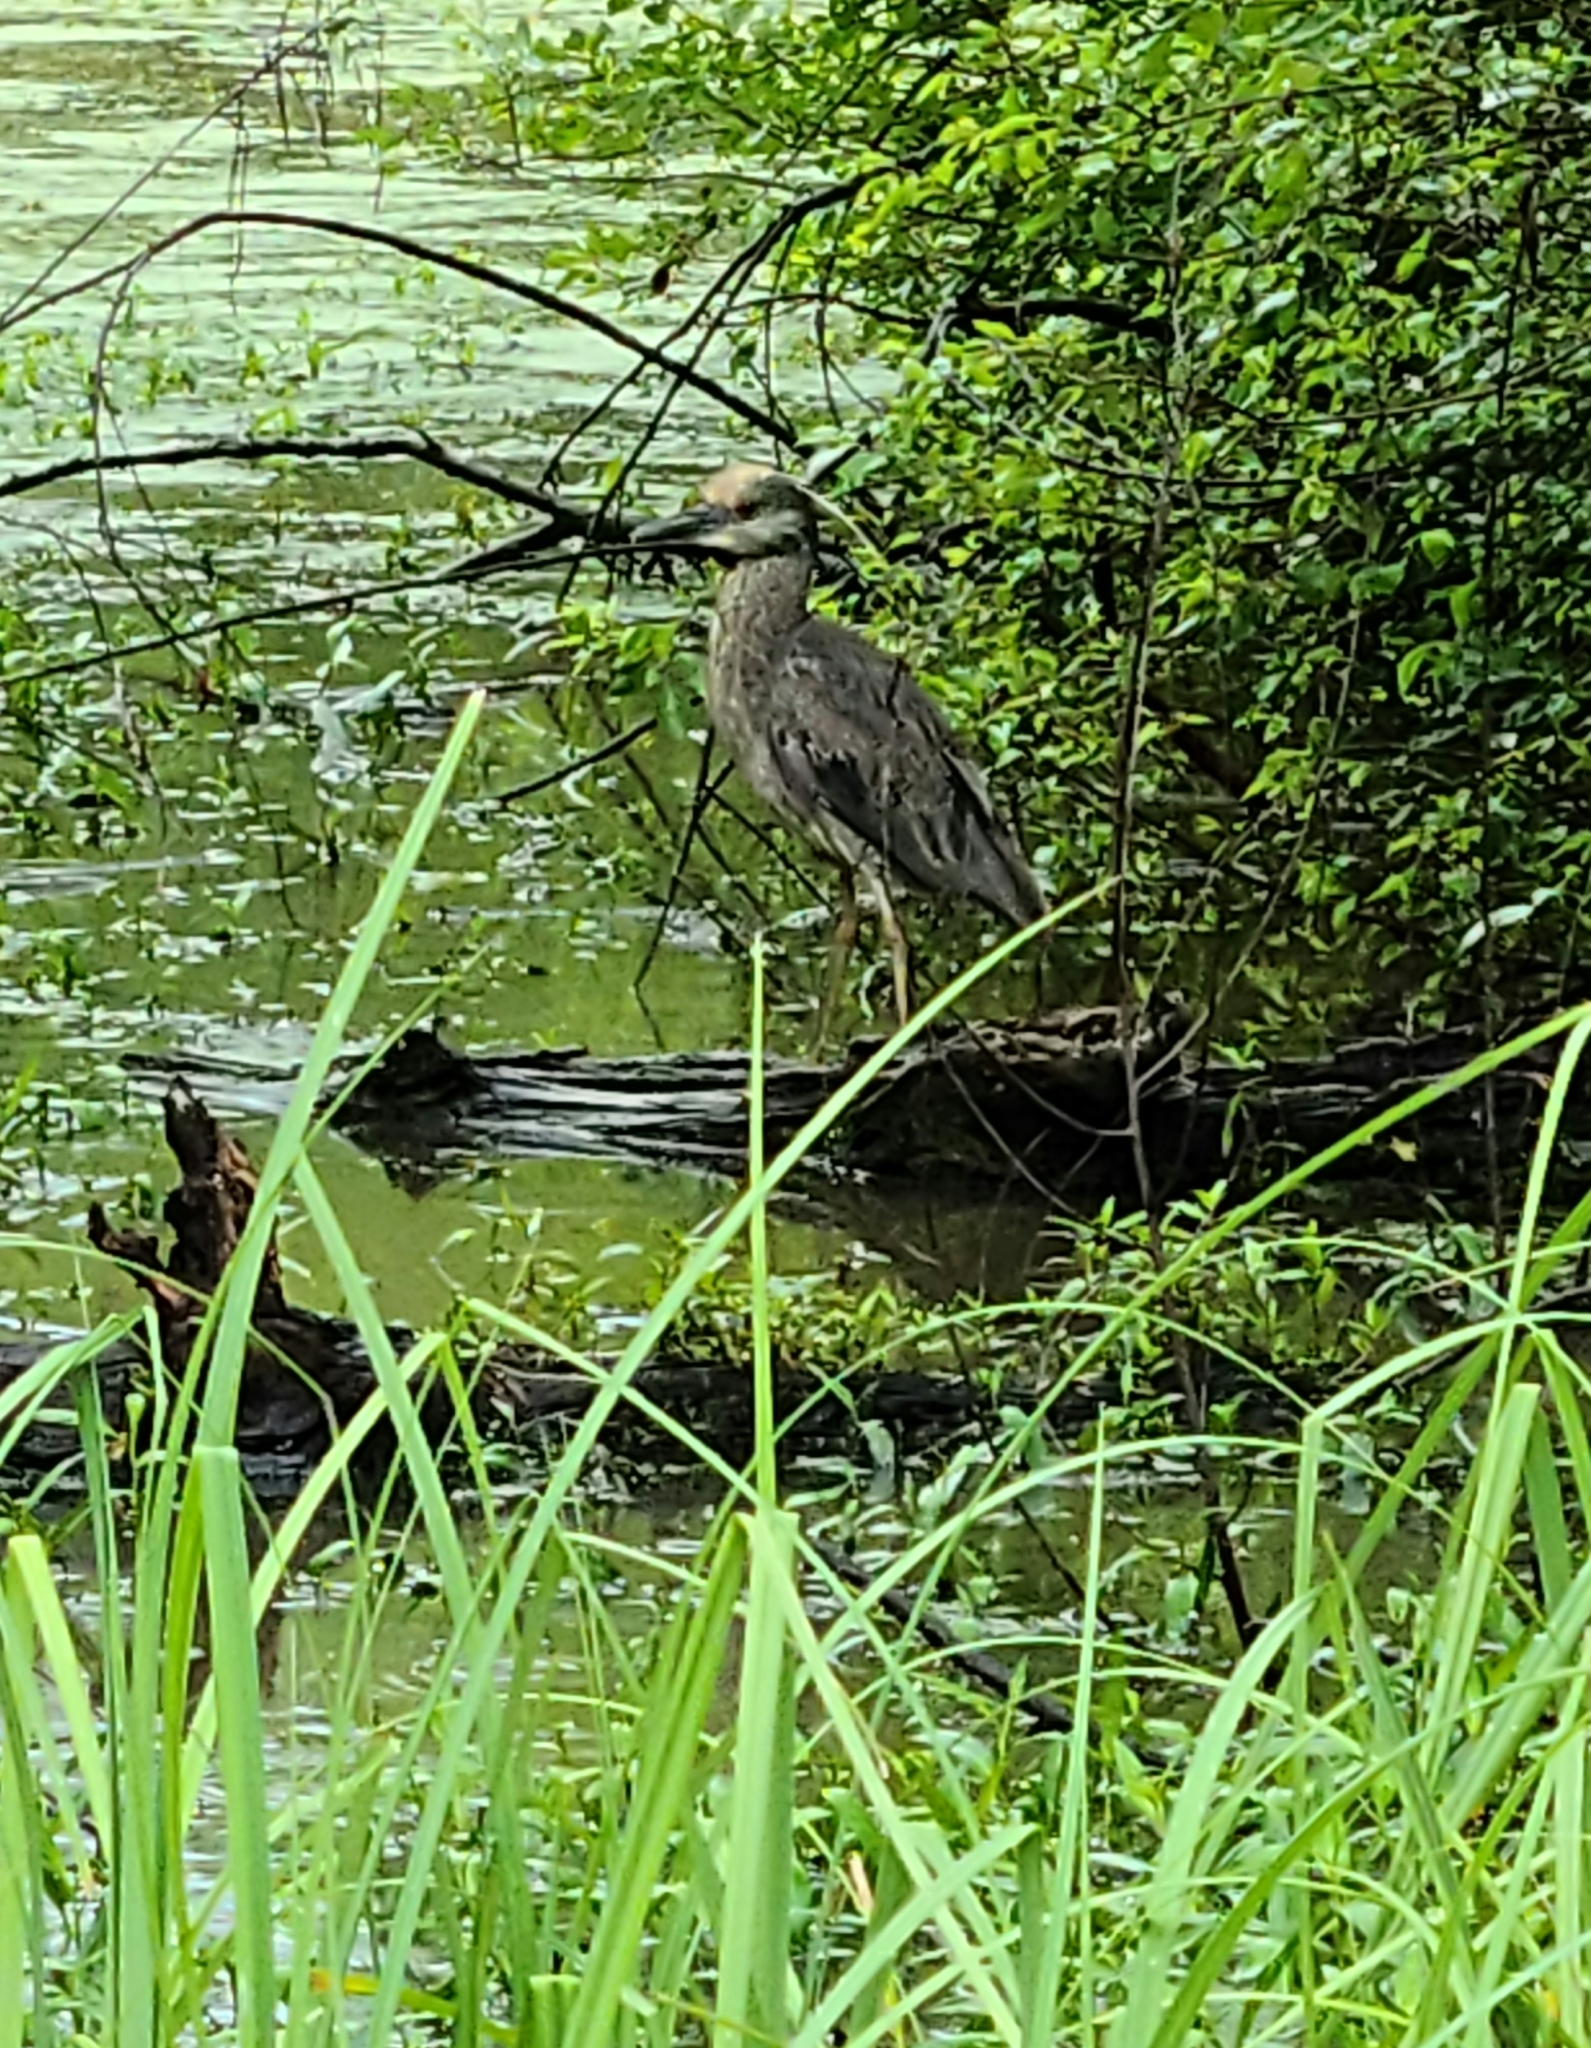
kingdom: Animalia
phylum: Chordata
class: Aves
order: Pelecaniformes
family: Ardeidae
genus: Nyctanassa
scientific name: Nyctanassa violacea
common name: Yellow-crowned night heron
